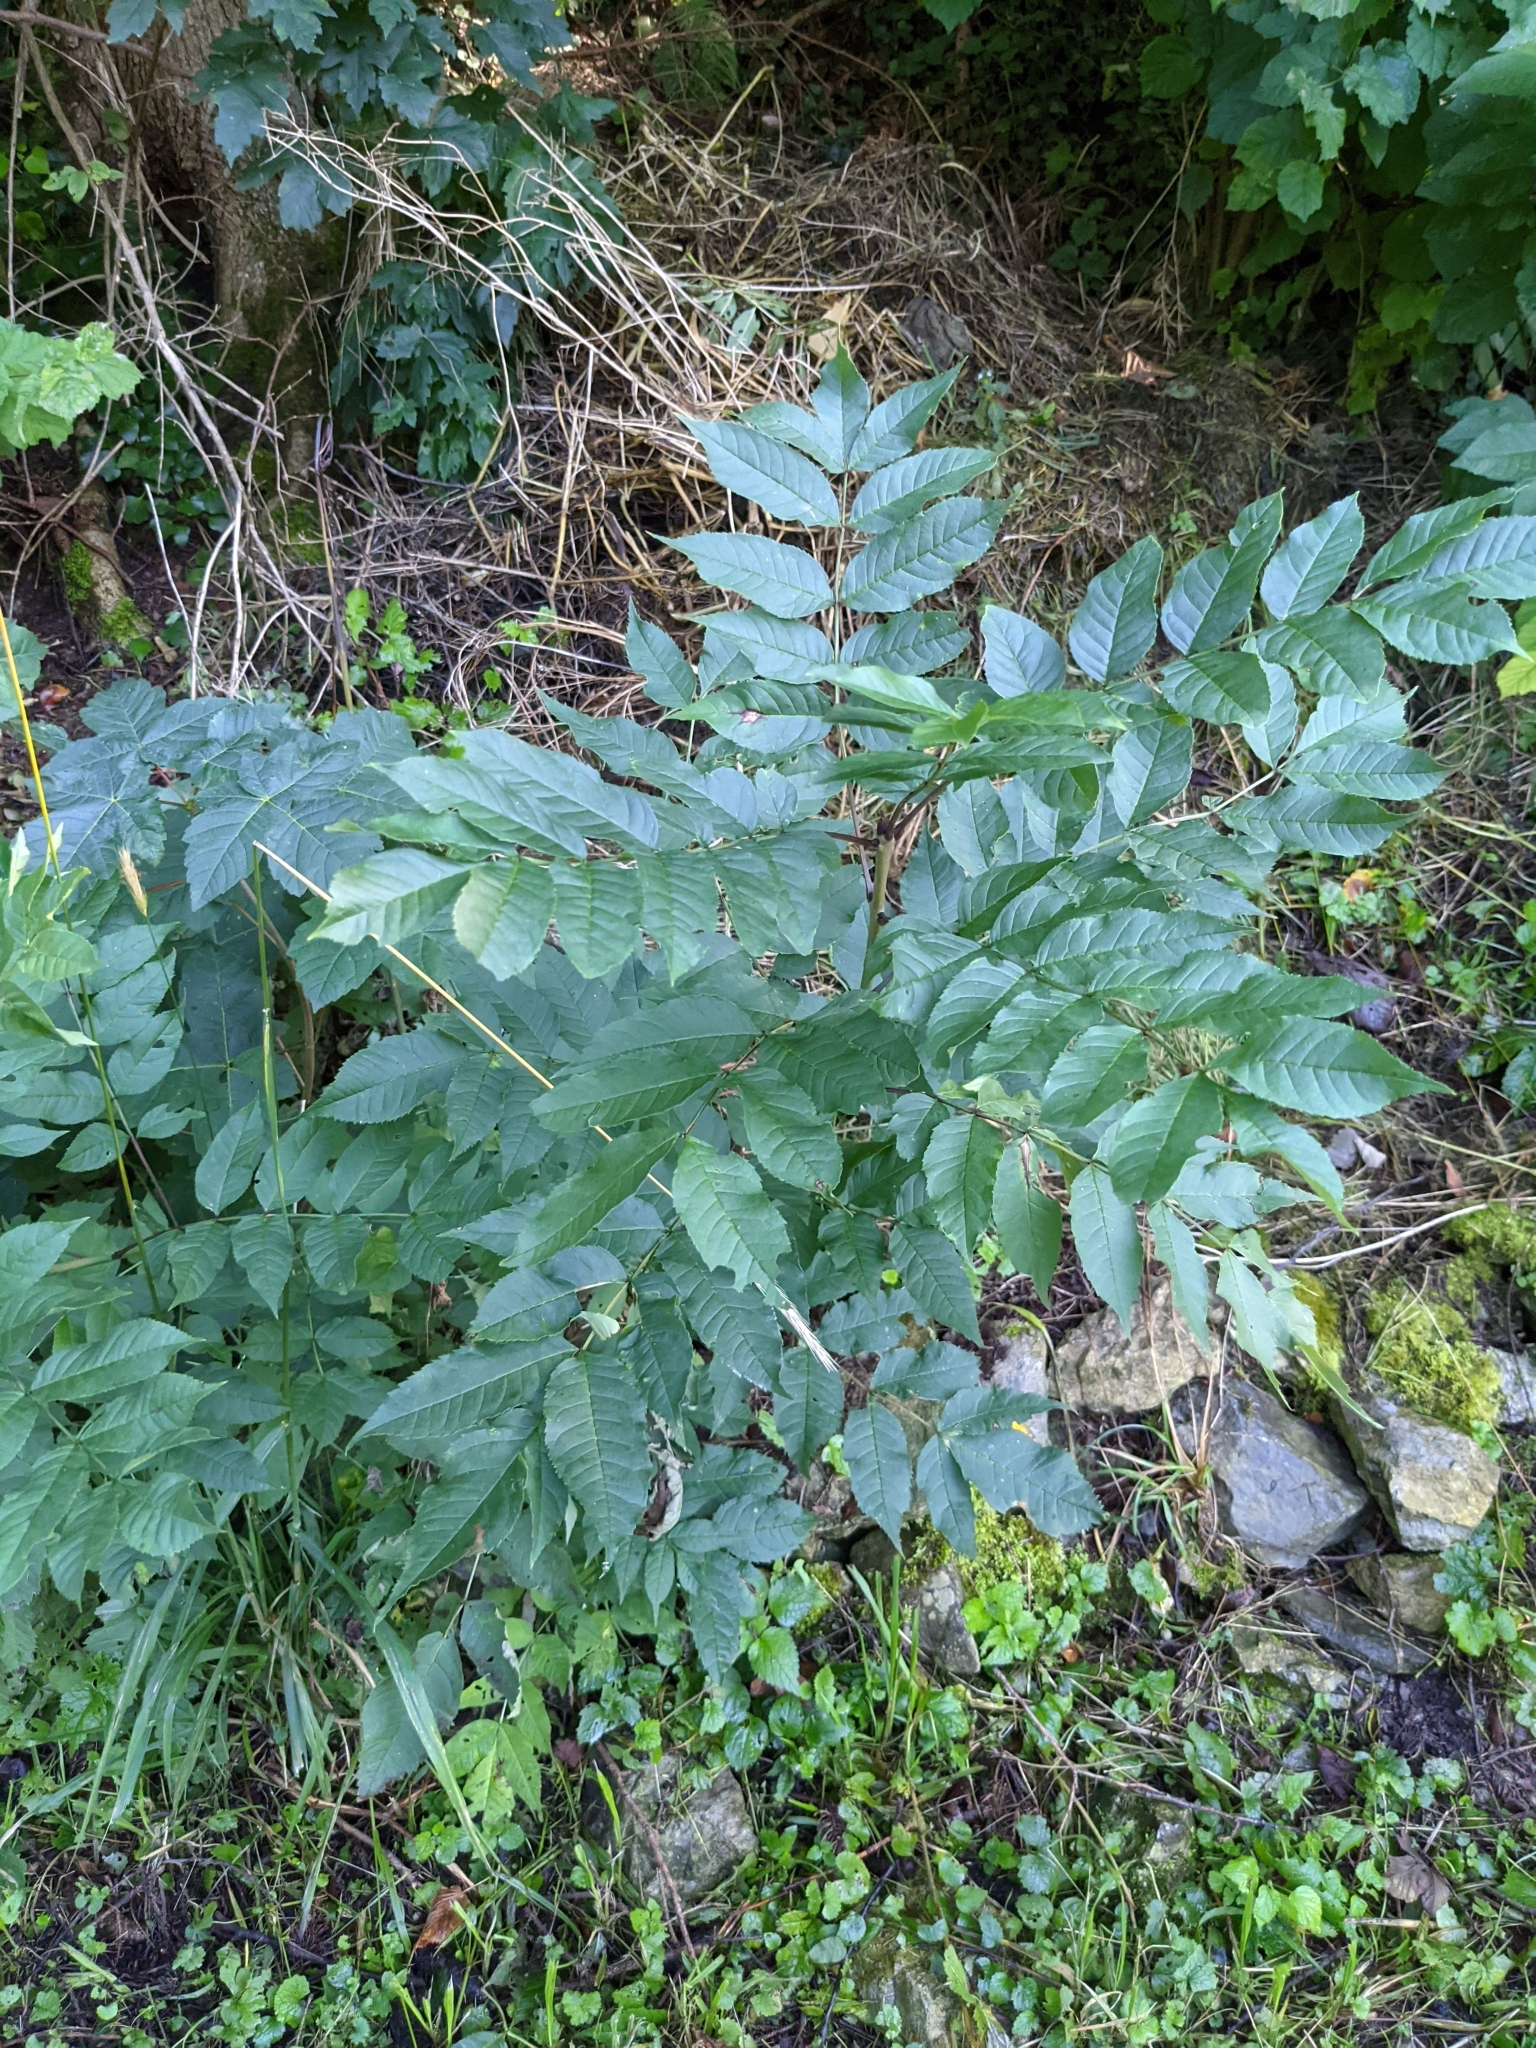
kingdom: Plantae
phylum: Tracheophyta
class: Magnoliopsida
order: Lamiales
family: Oleaceae
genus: Fraxinus
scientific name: Fraxinus excelsior
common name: European ash
